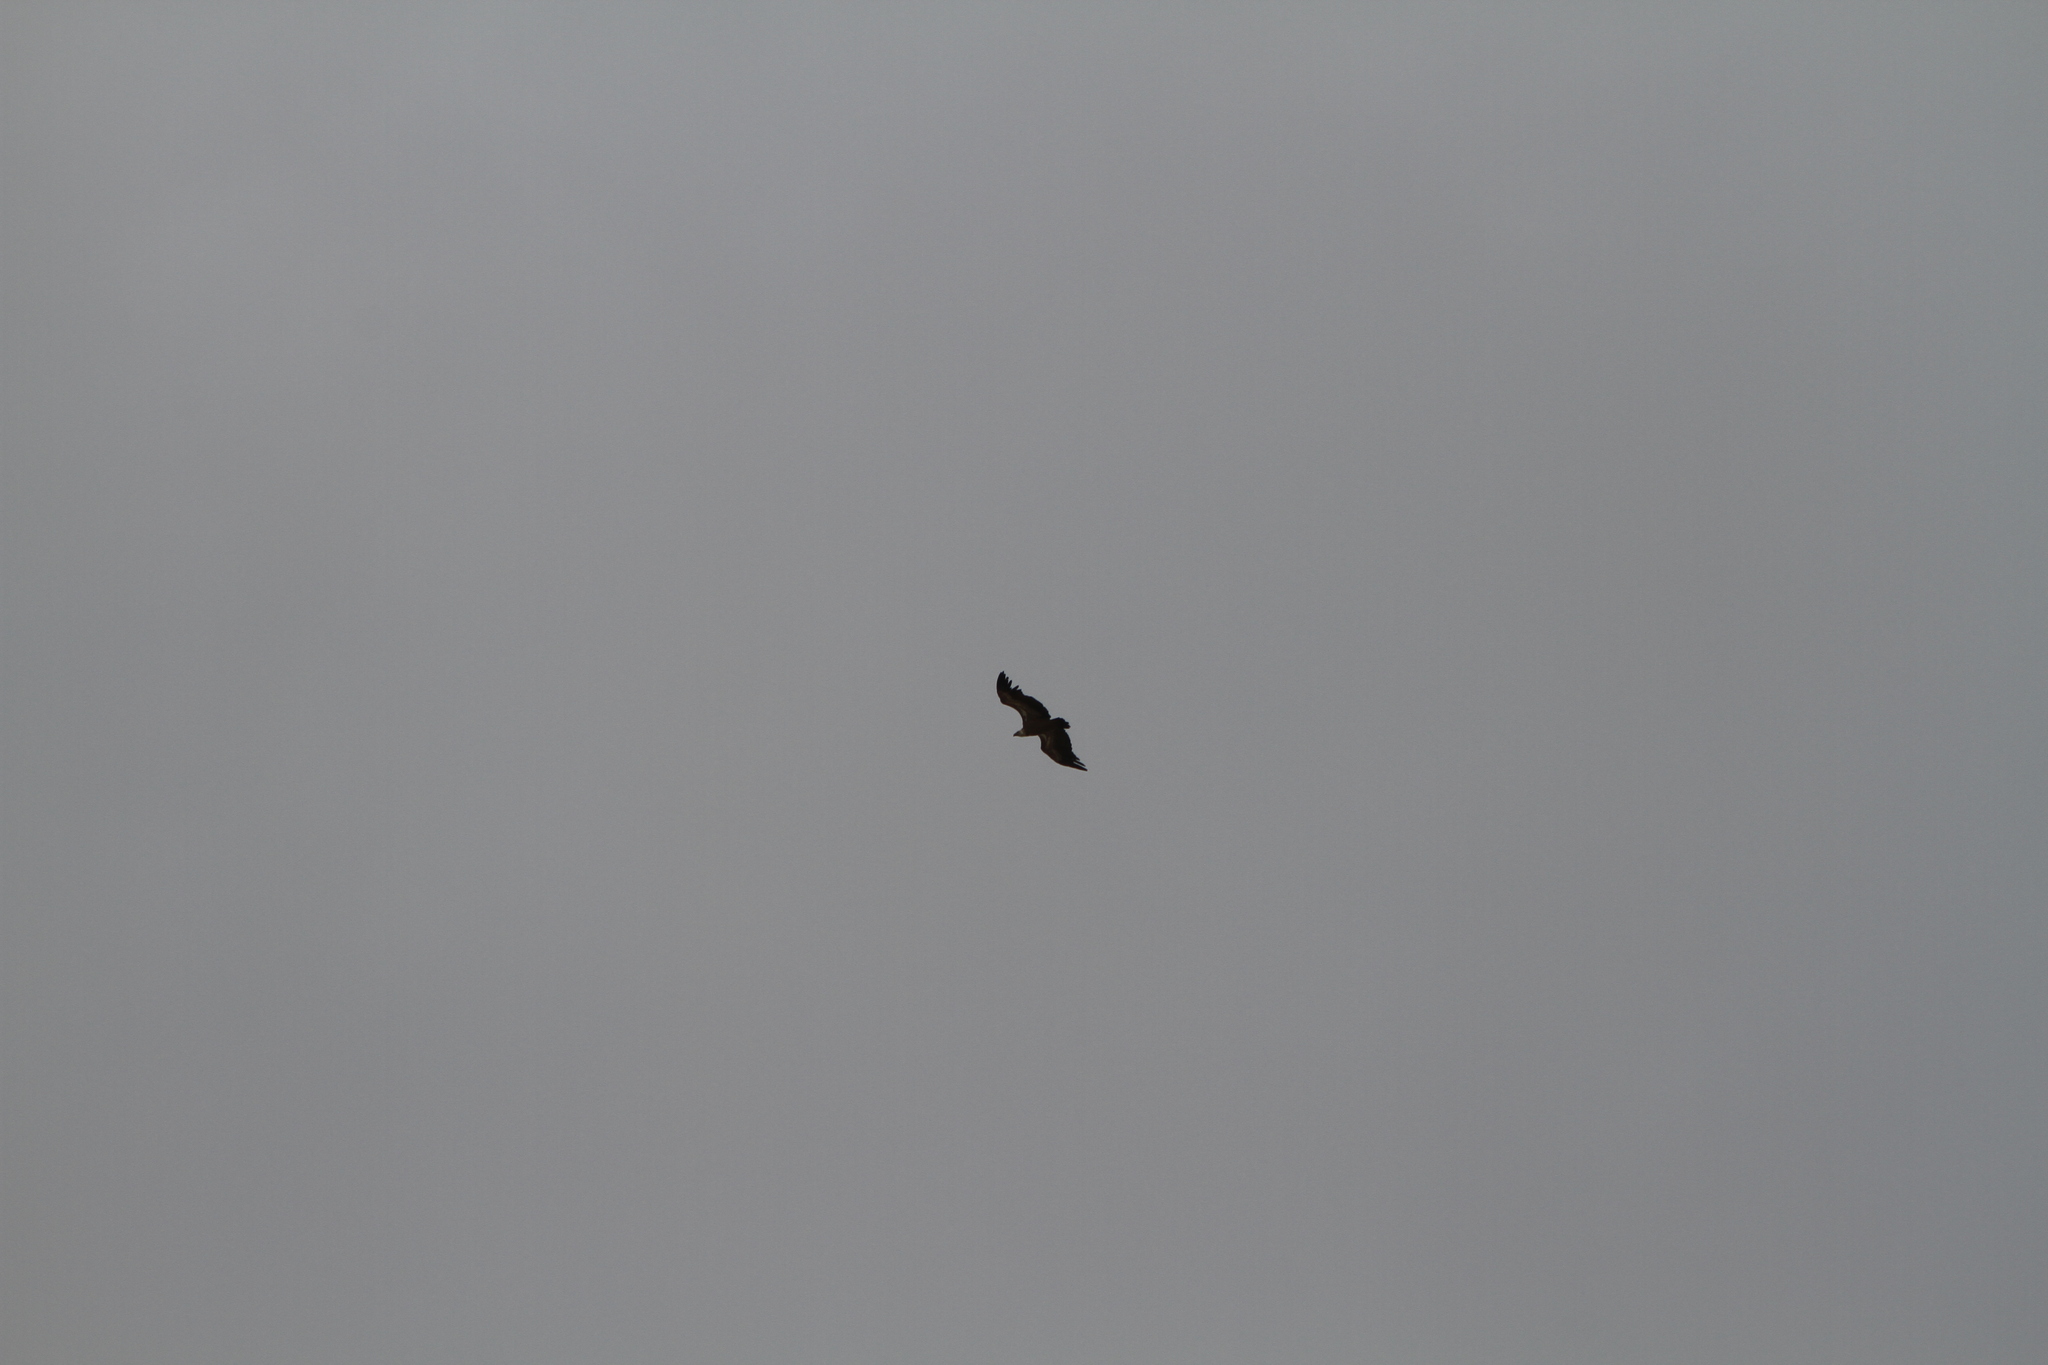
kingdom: Animalia
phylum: Chordata
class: Aves
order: Accipitriformes
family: Accipitridae
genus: Gyps
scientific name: Gyps fulvus
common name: Griffon vulture
